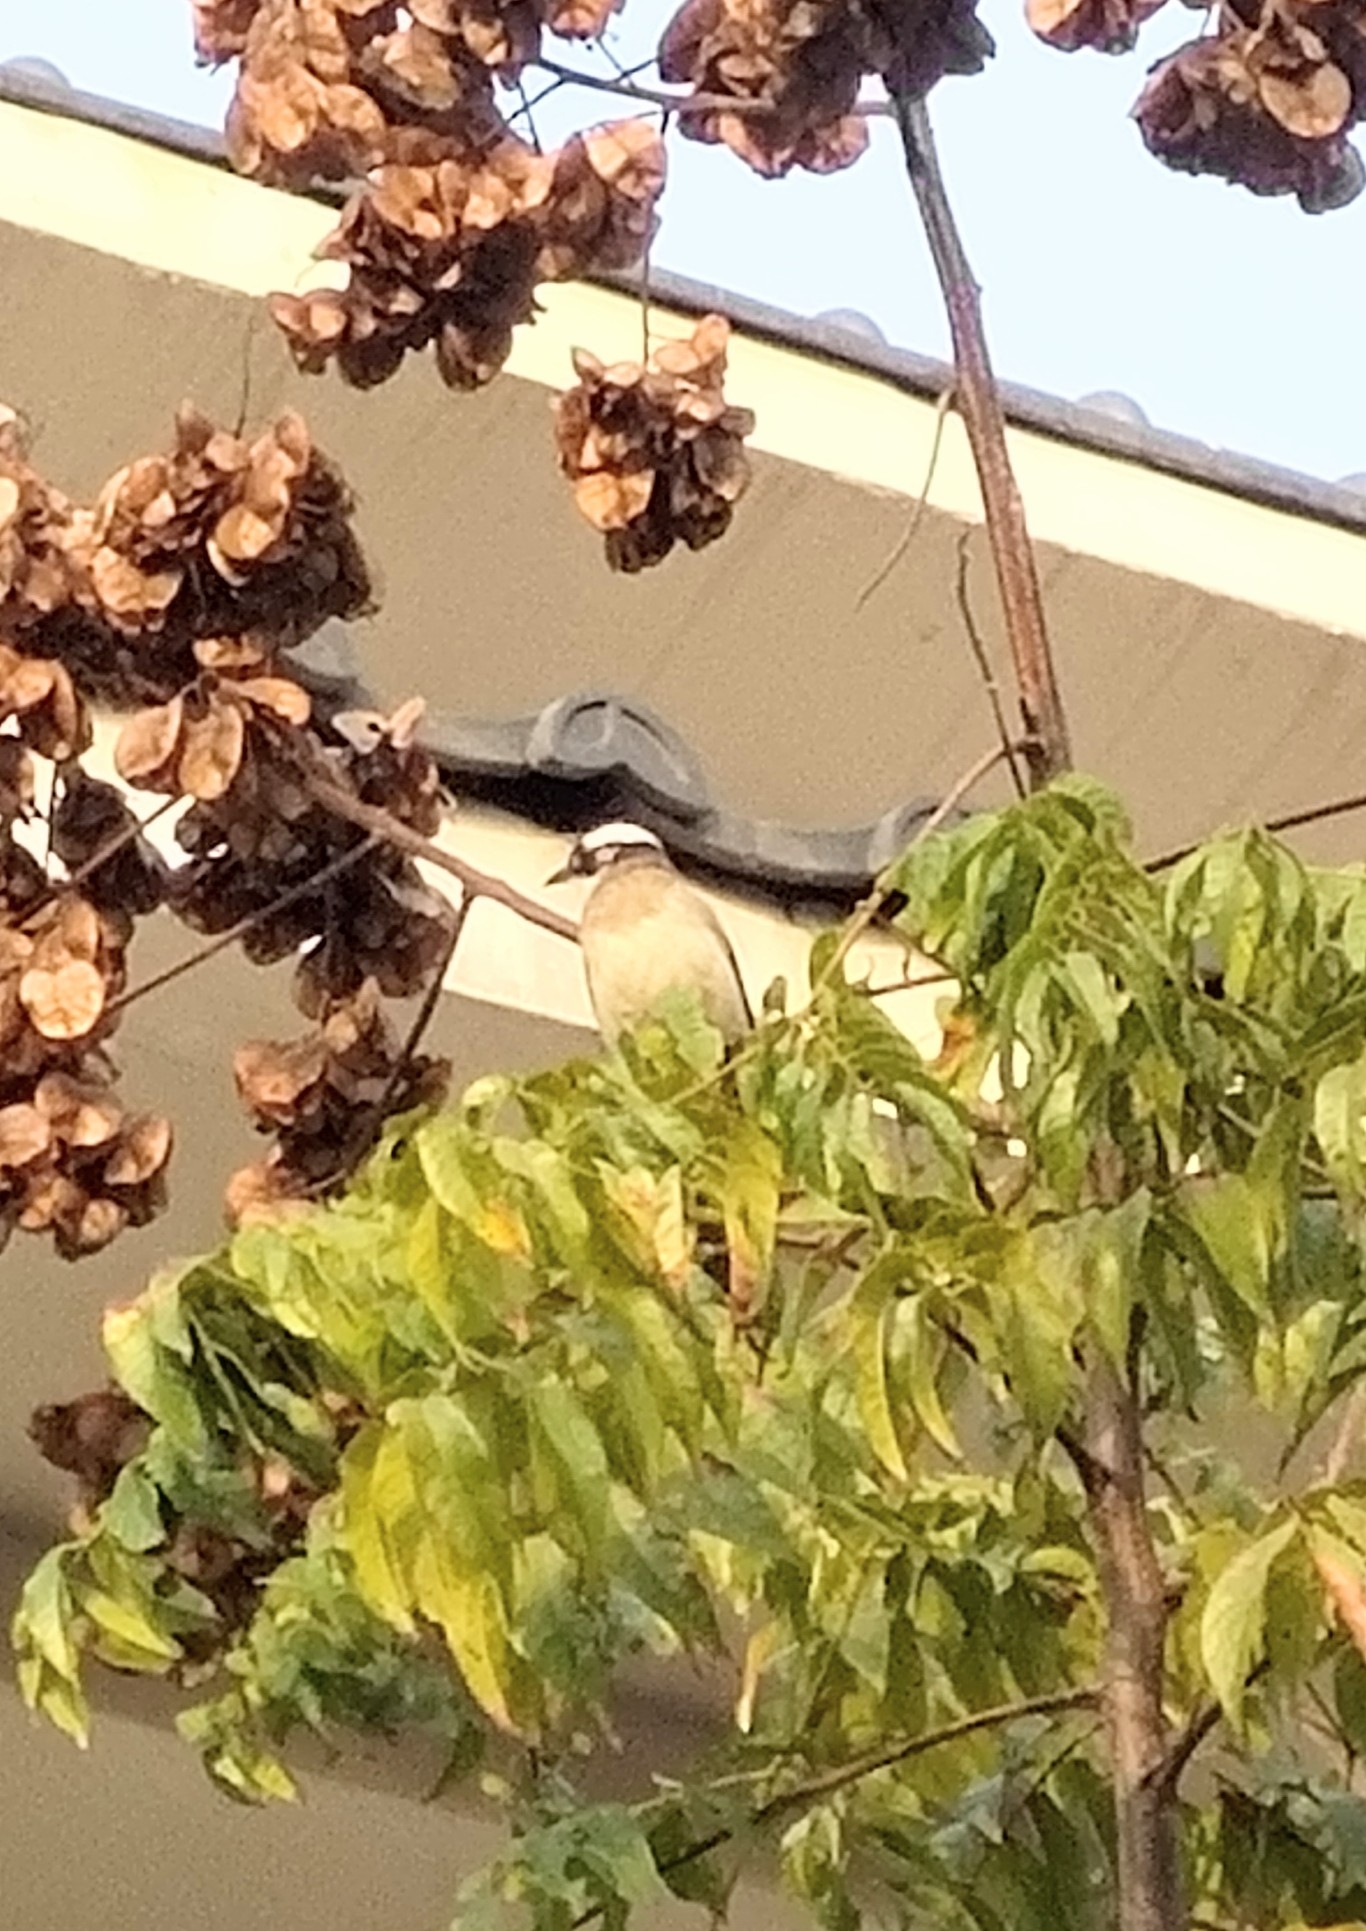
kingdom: Animalia
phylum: Chordata
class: Aves
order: Passeriformes
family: Pycnonotidae
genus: Pycnonotus
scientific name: Pycnonotus sinensis
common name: Light-vented bulbul
